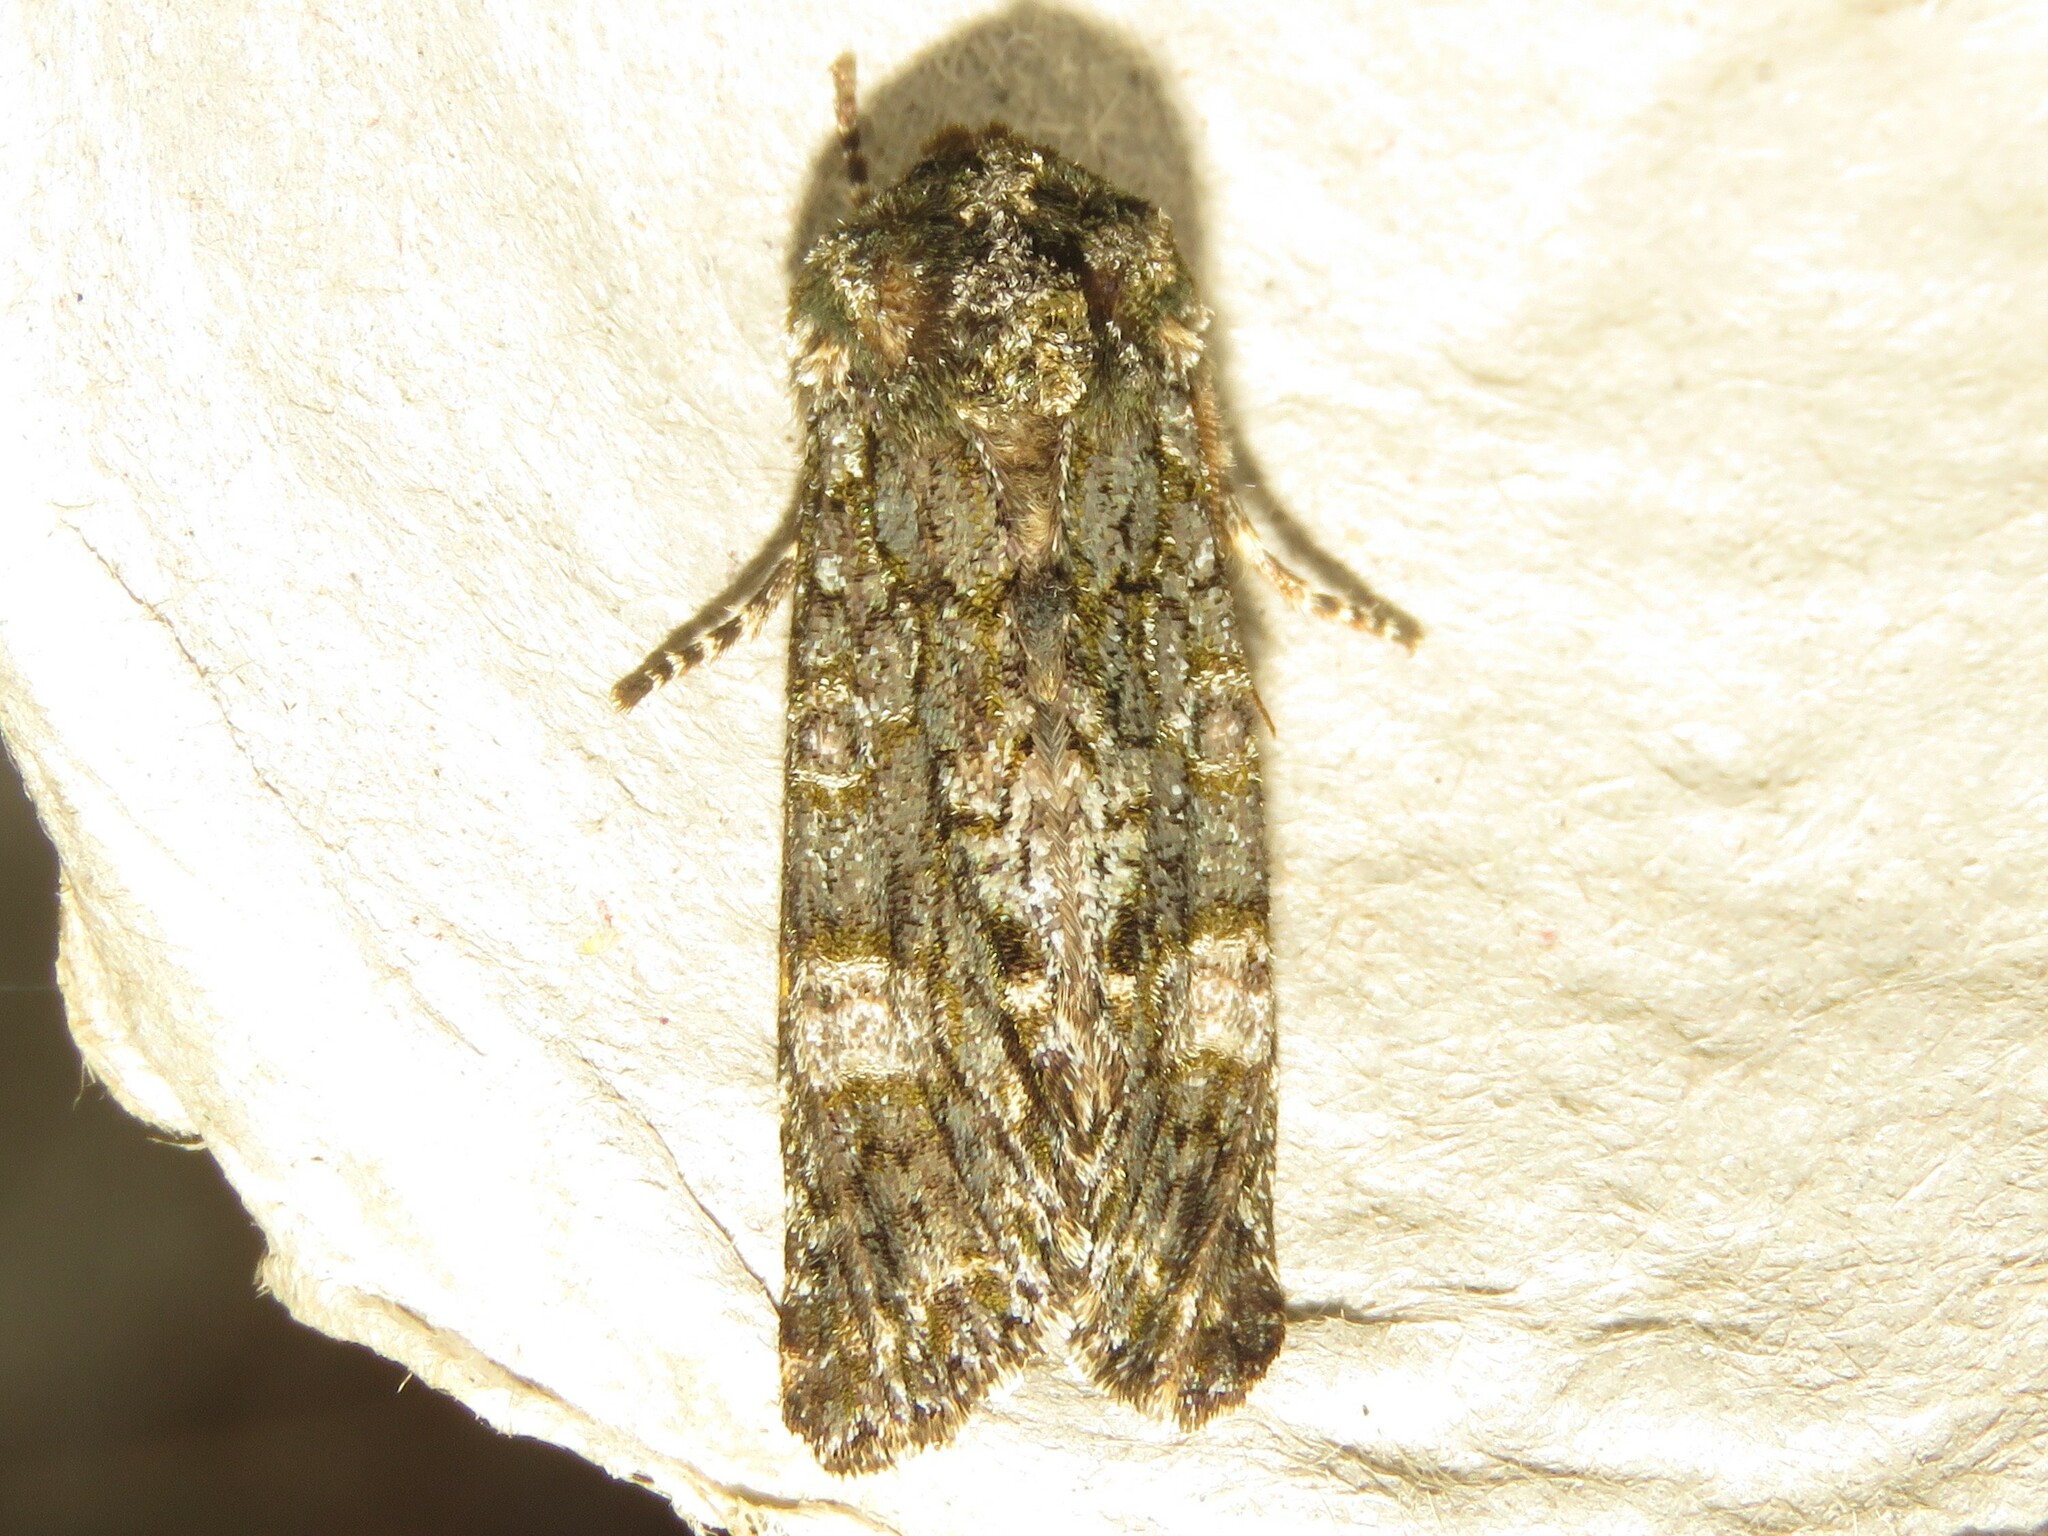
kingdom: Animalia
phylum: Arthropoda
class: Insecta
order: Lepidoptera
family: Noctuidae
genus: Psaphida
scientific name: Psaphida grotei
